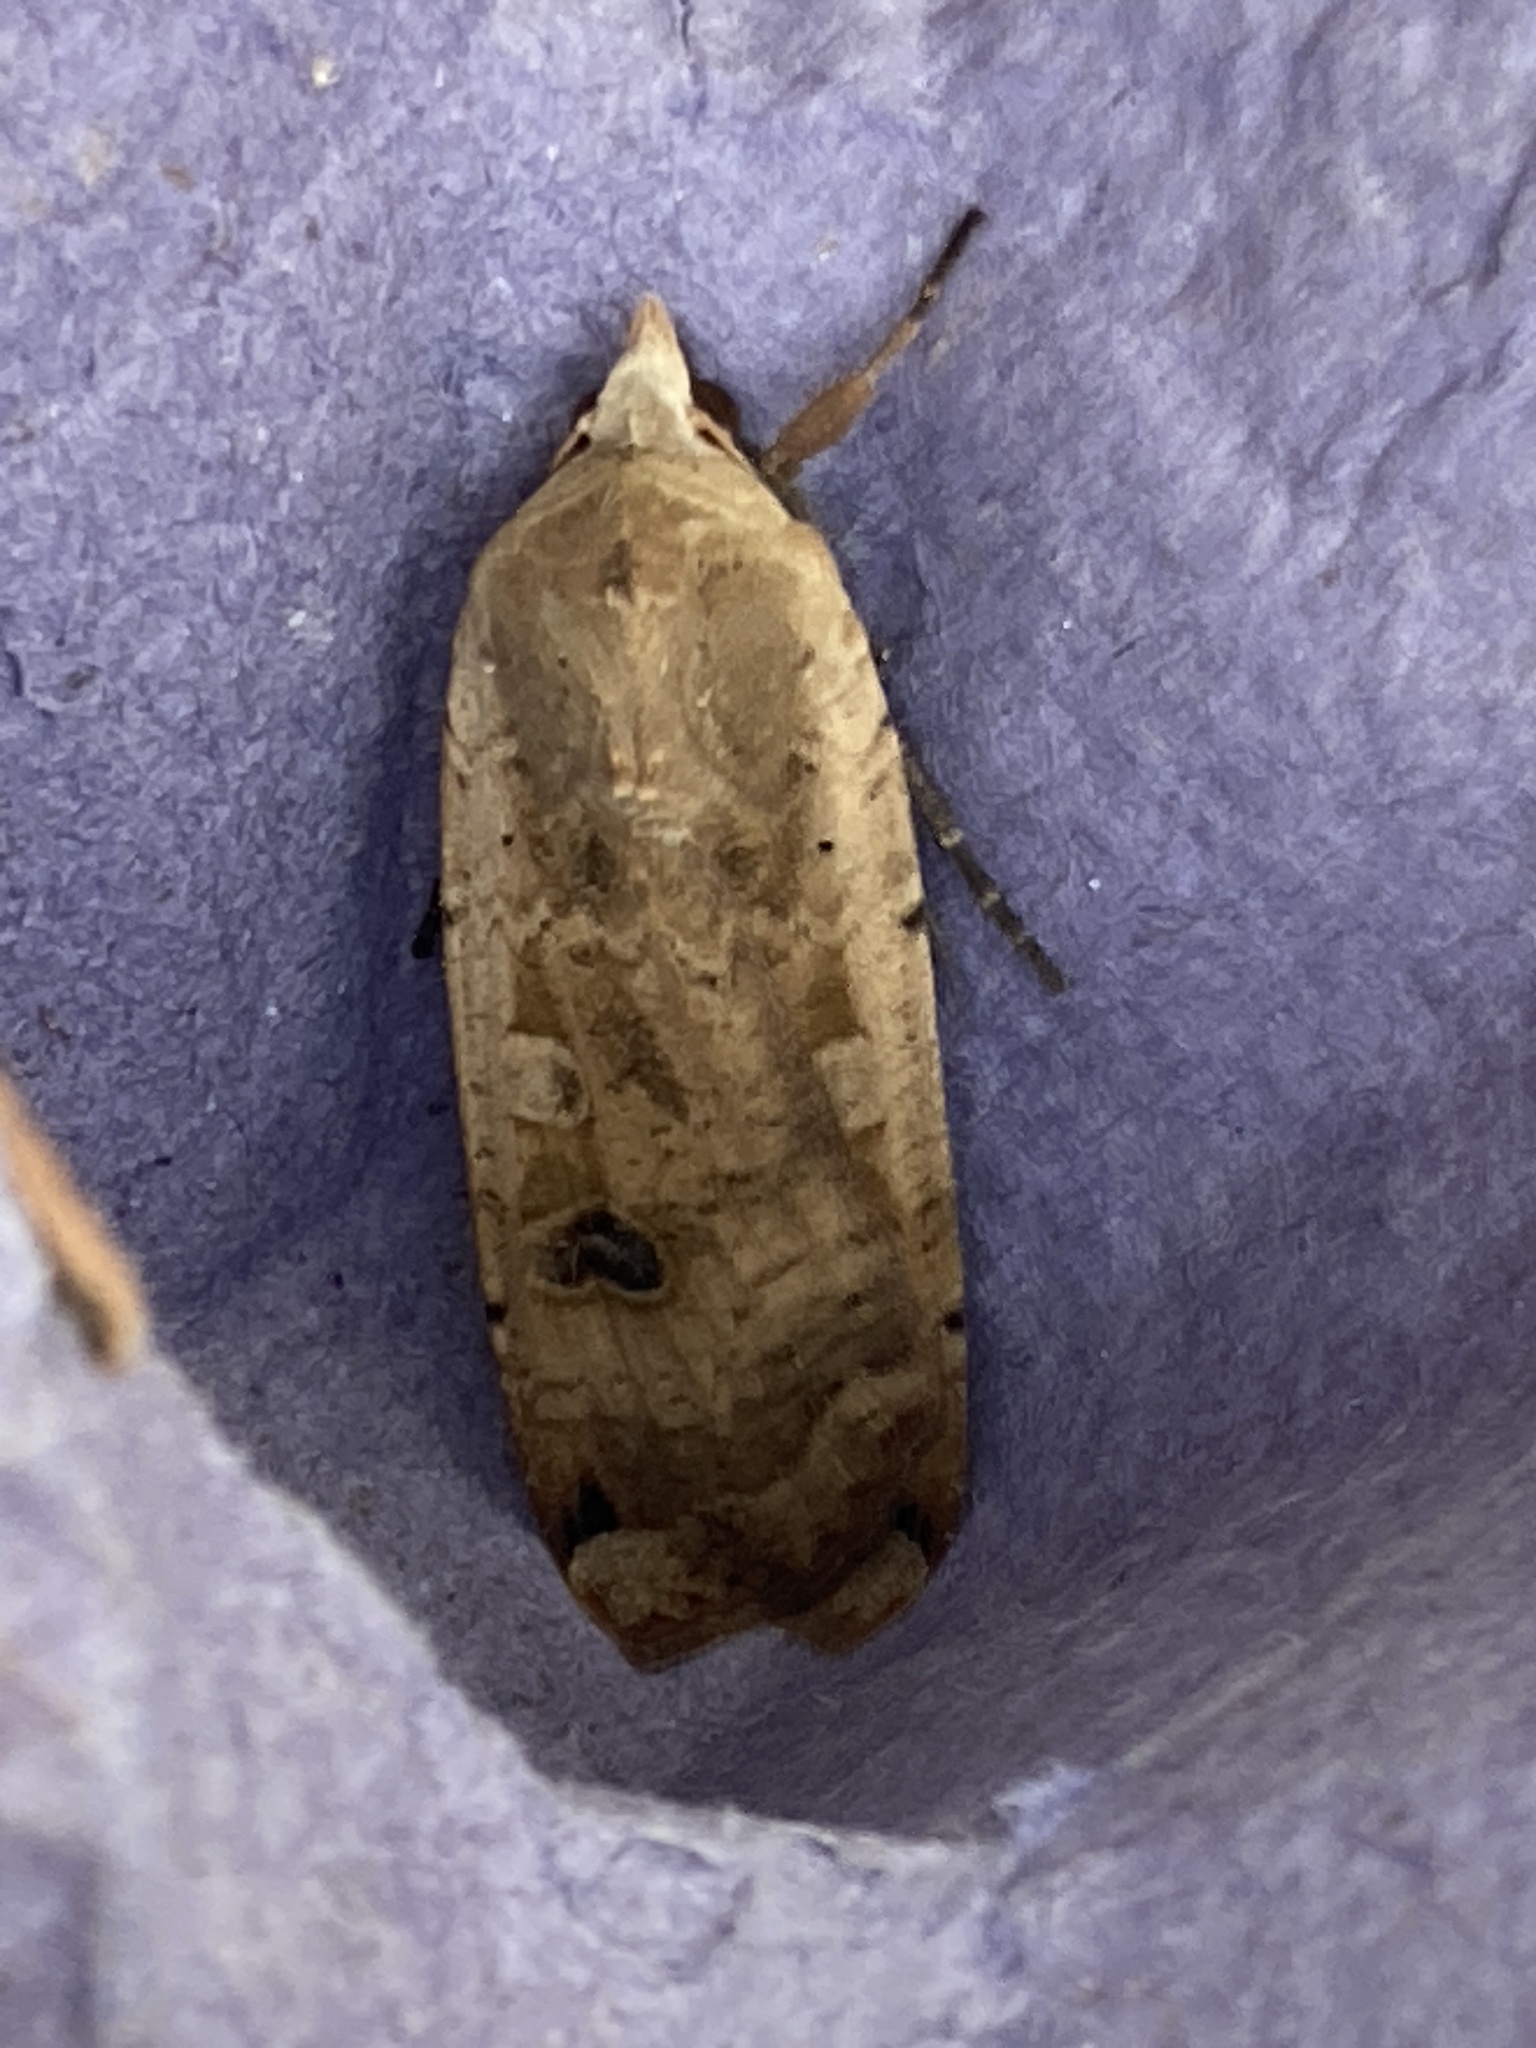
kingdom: Animalia
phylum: Arthropoda
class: Insecta
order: Lepidoptera
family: Noctuidae
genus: Noctua
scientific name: Noctua pronuba
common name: Large yellow underwing
